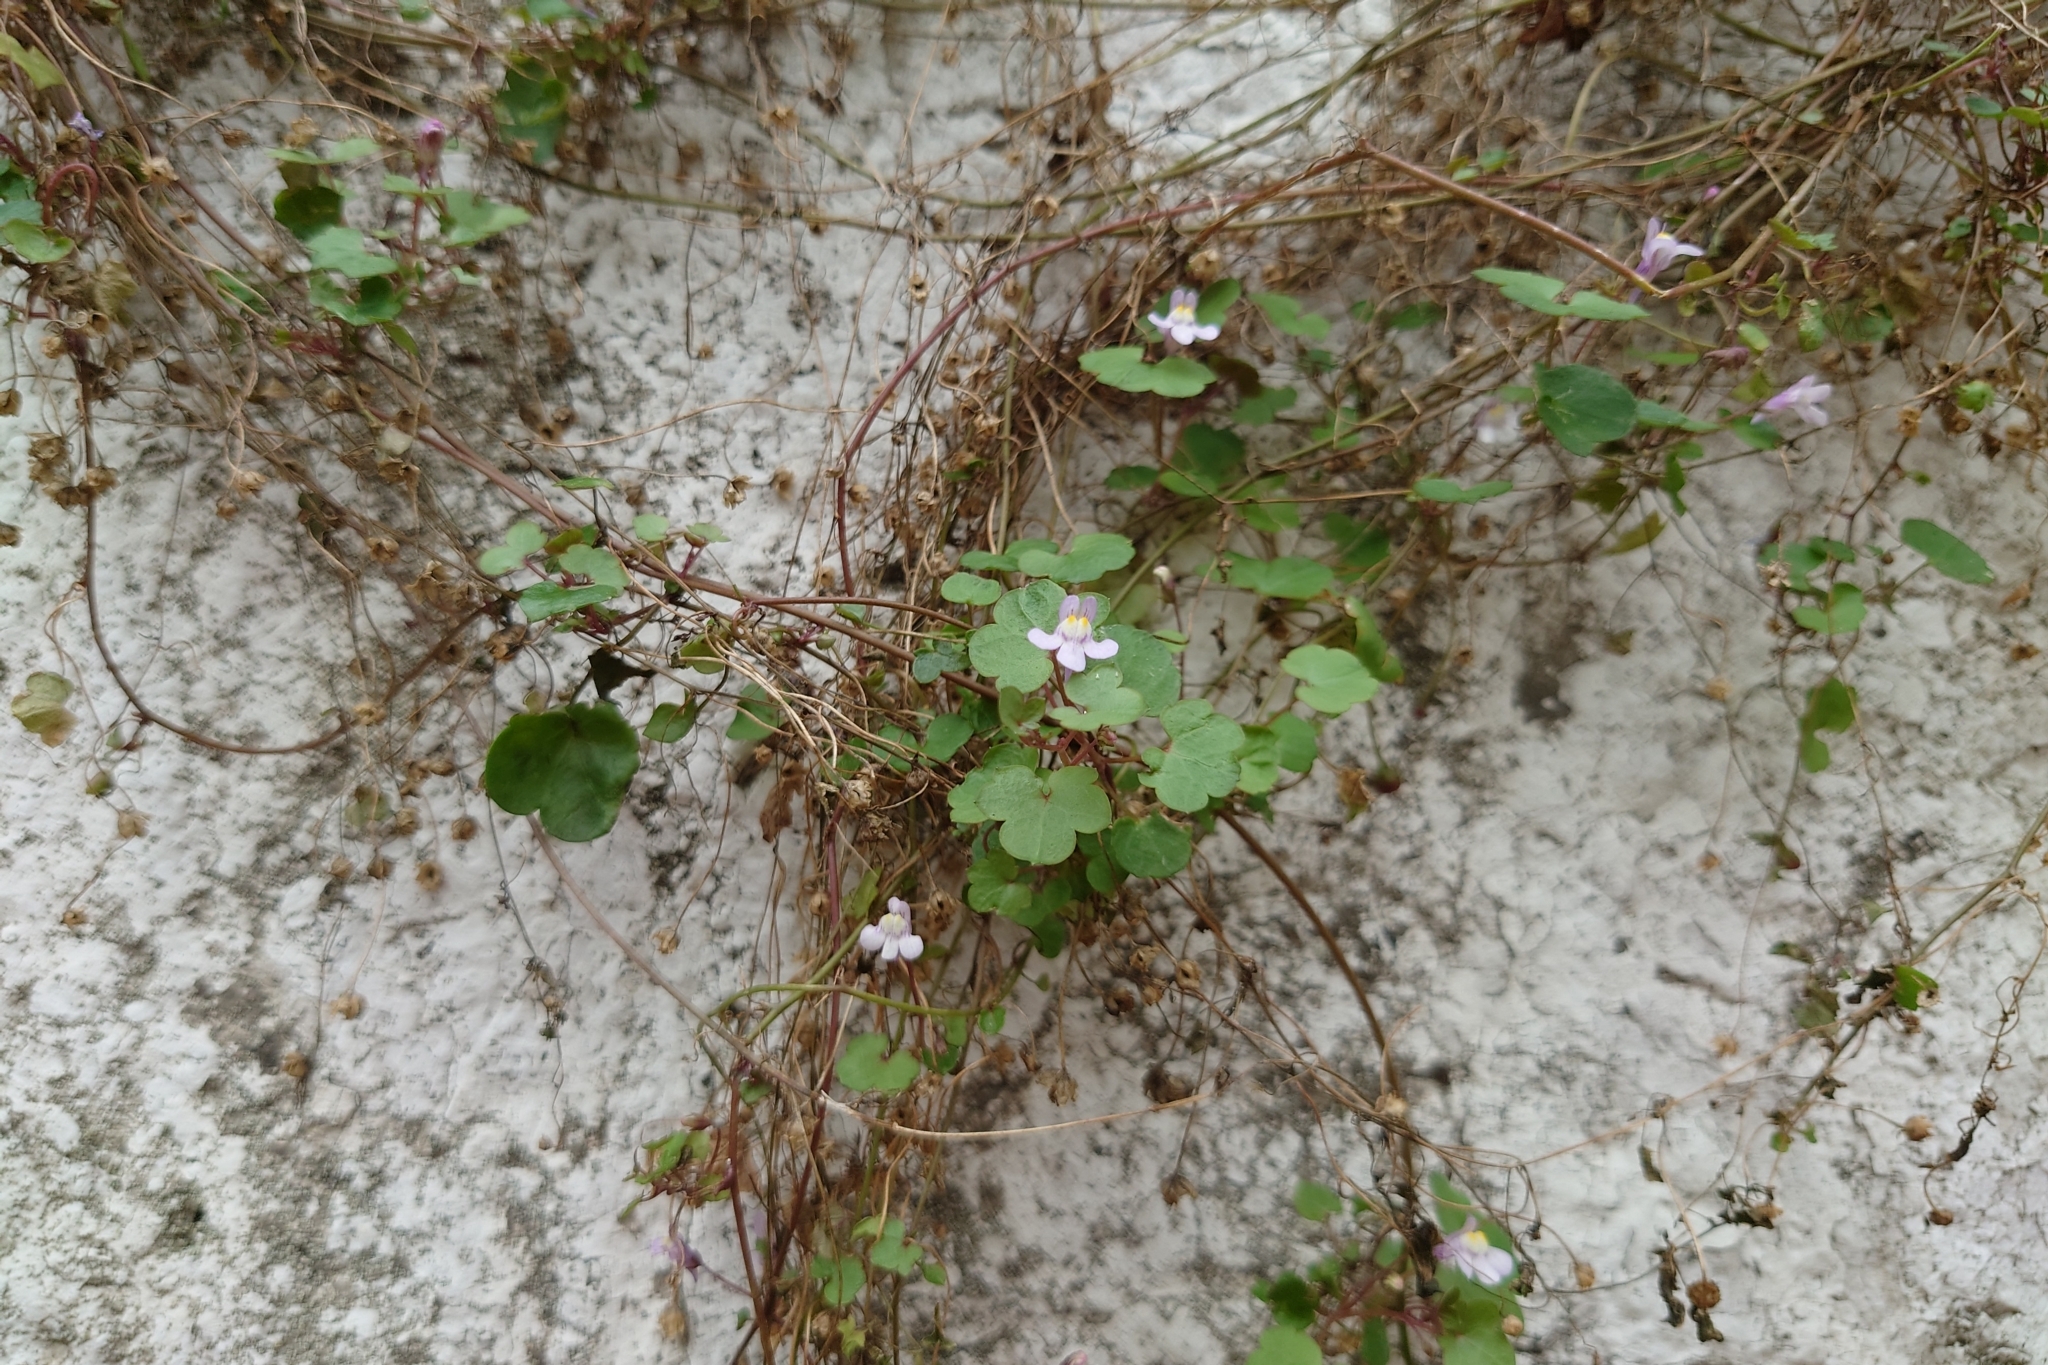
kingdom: Plantae
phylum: Tracheophyta
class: Magnoliopsida
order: Lamiales
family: Plantaginaceae
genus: Cymbalaria
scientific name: Cymbalaria muralis
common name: Ivy-leaved toadflax
